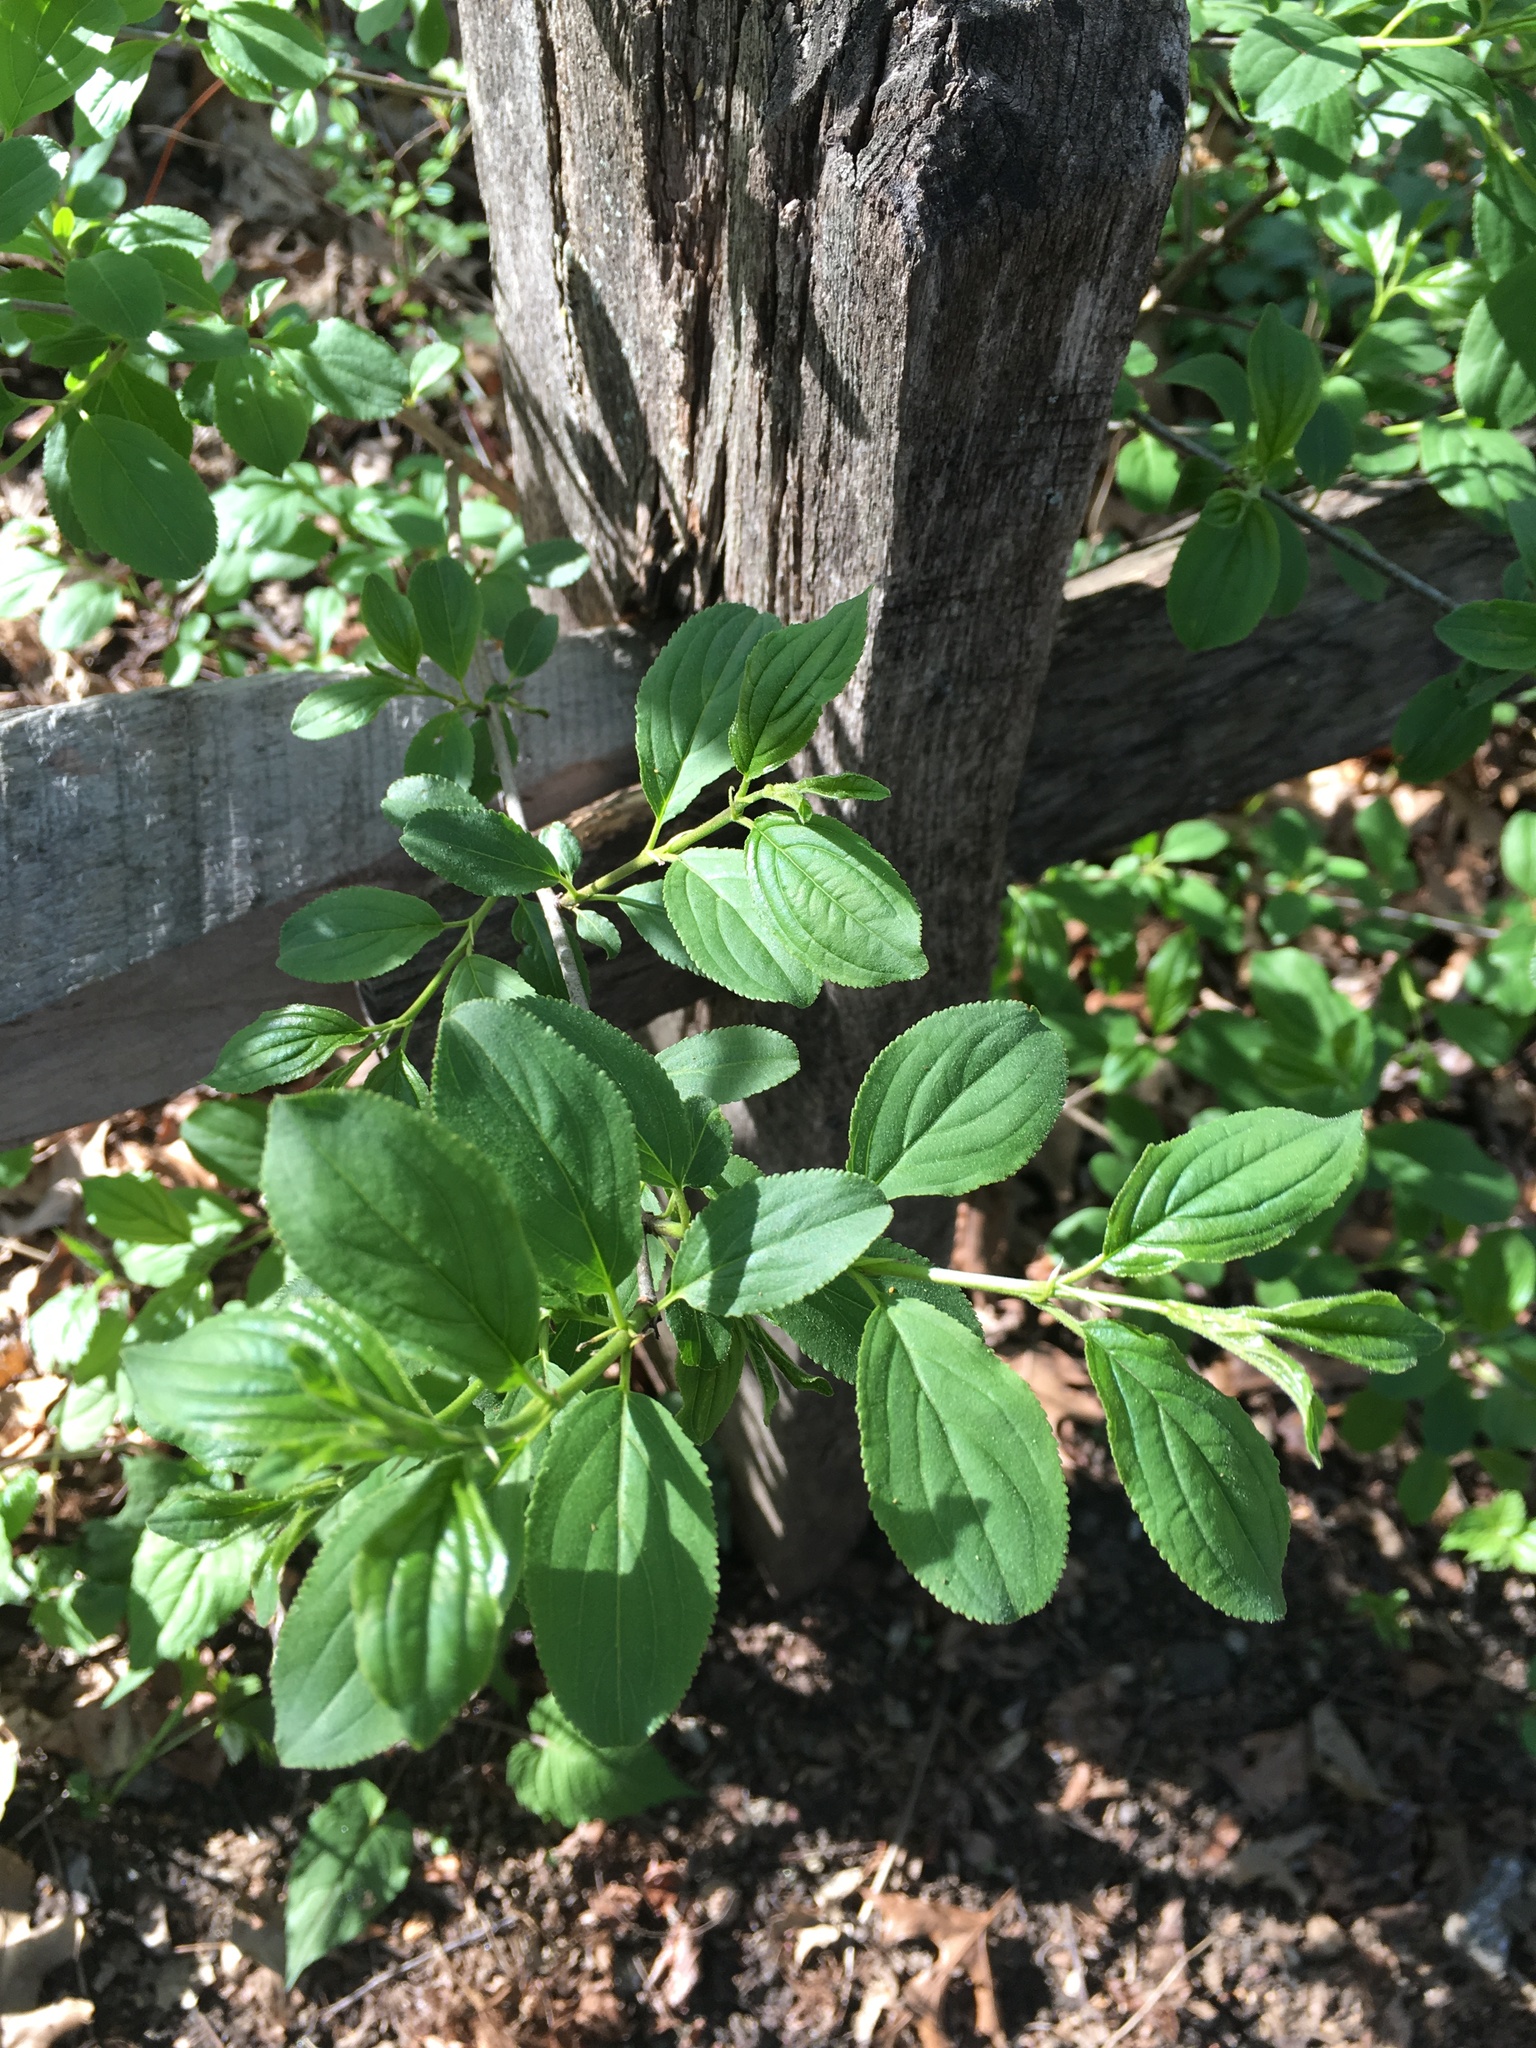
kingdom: Plantae
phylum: Tracheophyta
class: Magnoliopsida
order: Rosales
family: Rhamnaceae
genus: Rhamnus
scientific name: Rhamnus cathartica
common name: Common buckthorn
